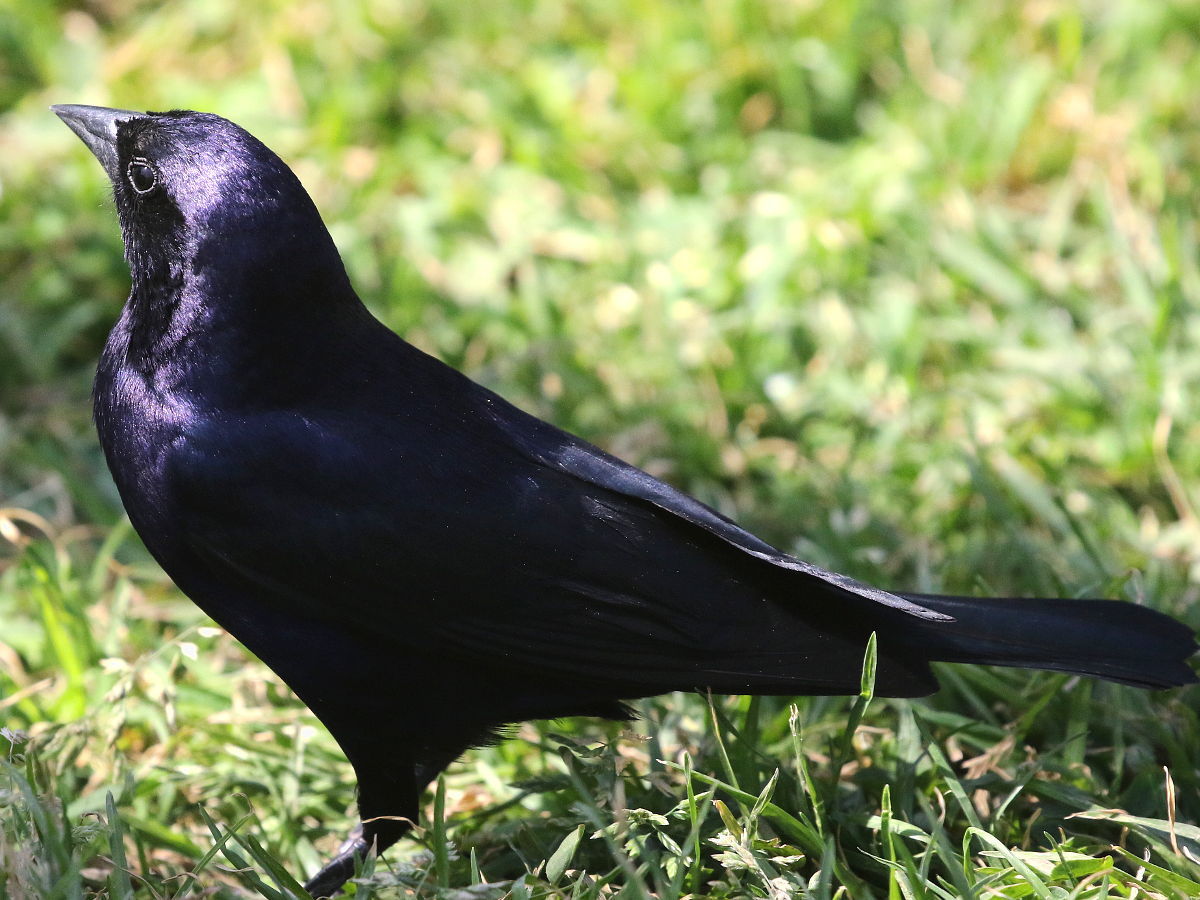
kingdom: Animalia
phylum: Chordata
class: Aves
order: Passeriformes
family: Icteridae
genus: Molothrus
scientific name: Molothrus bonariensis
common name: Shiny cowbird
